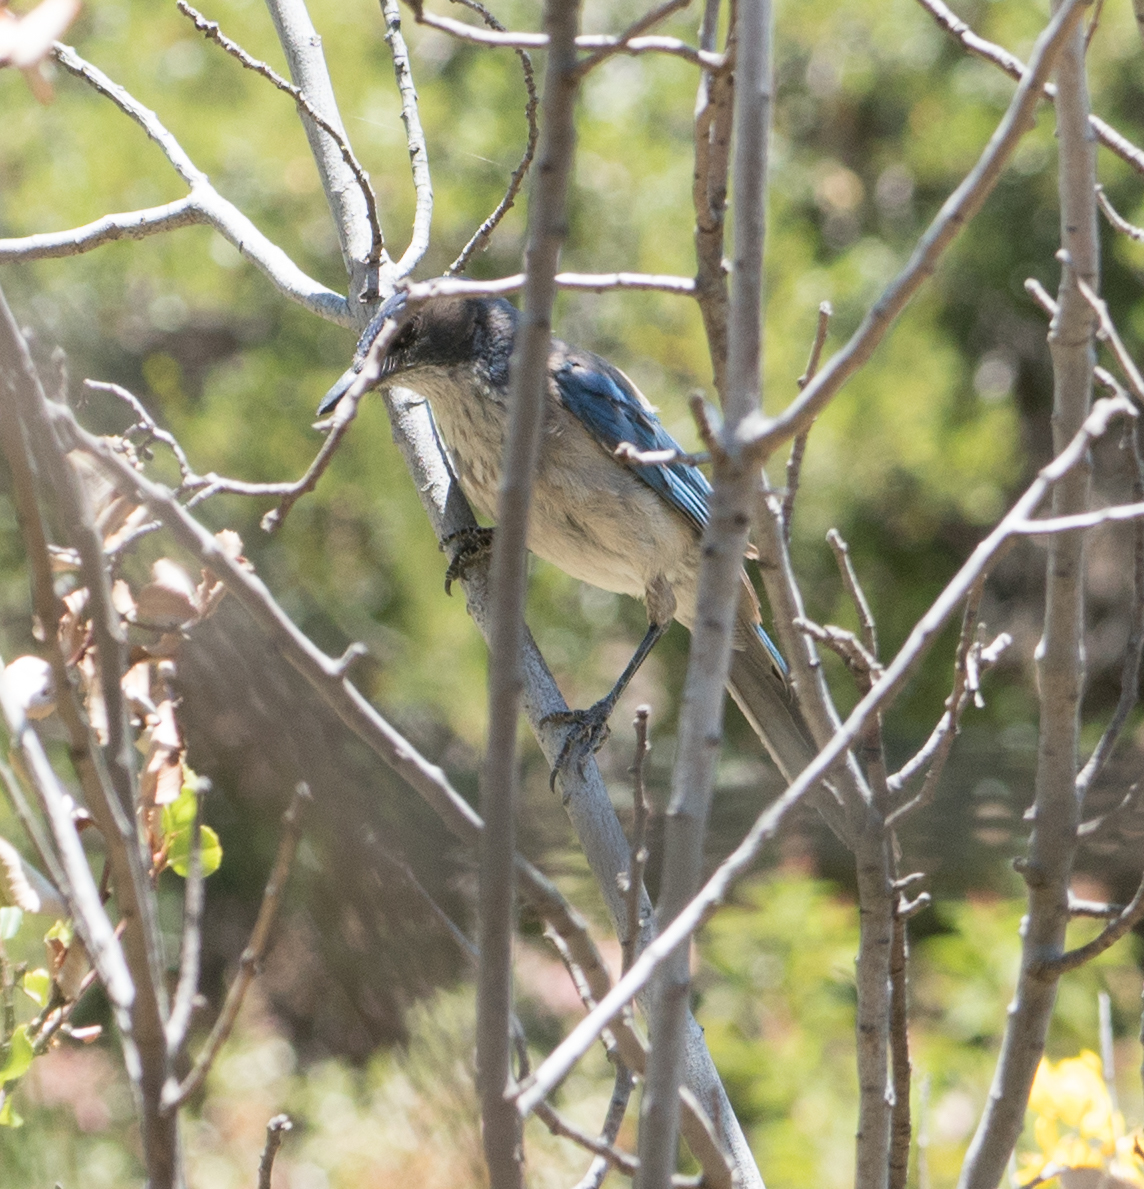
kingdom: Animalia
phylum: Chordata
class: Aves
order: Passeriformes
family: Corvidae
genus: Aphelocoma
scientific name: Aphelocoma californica
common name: California scrub-jay
